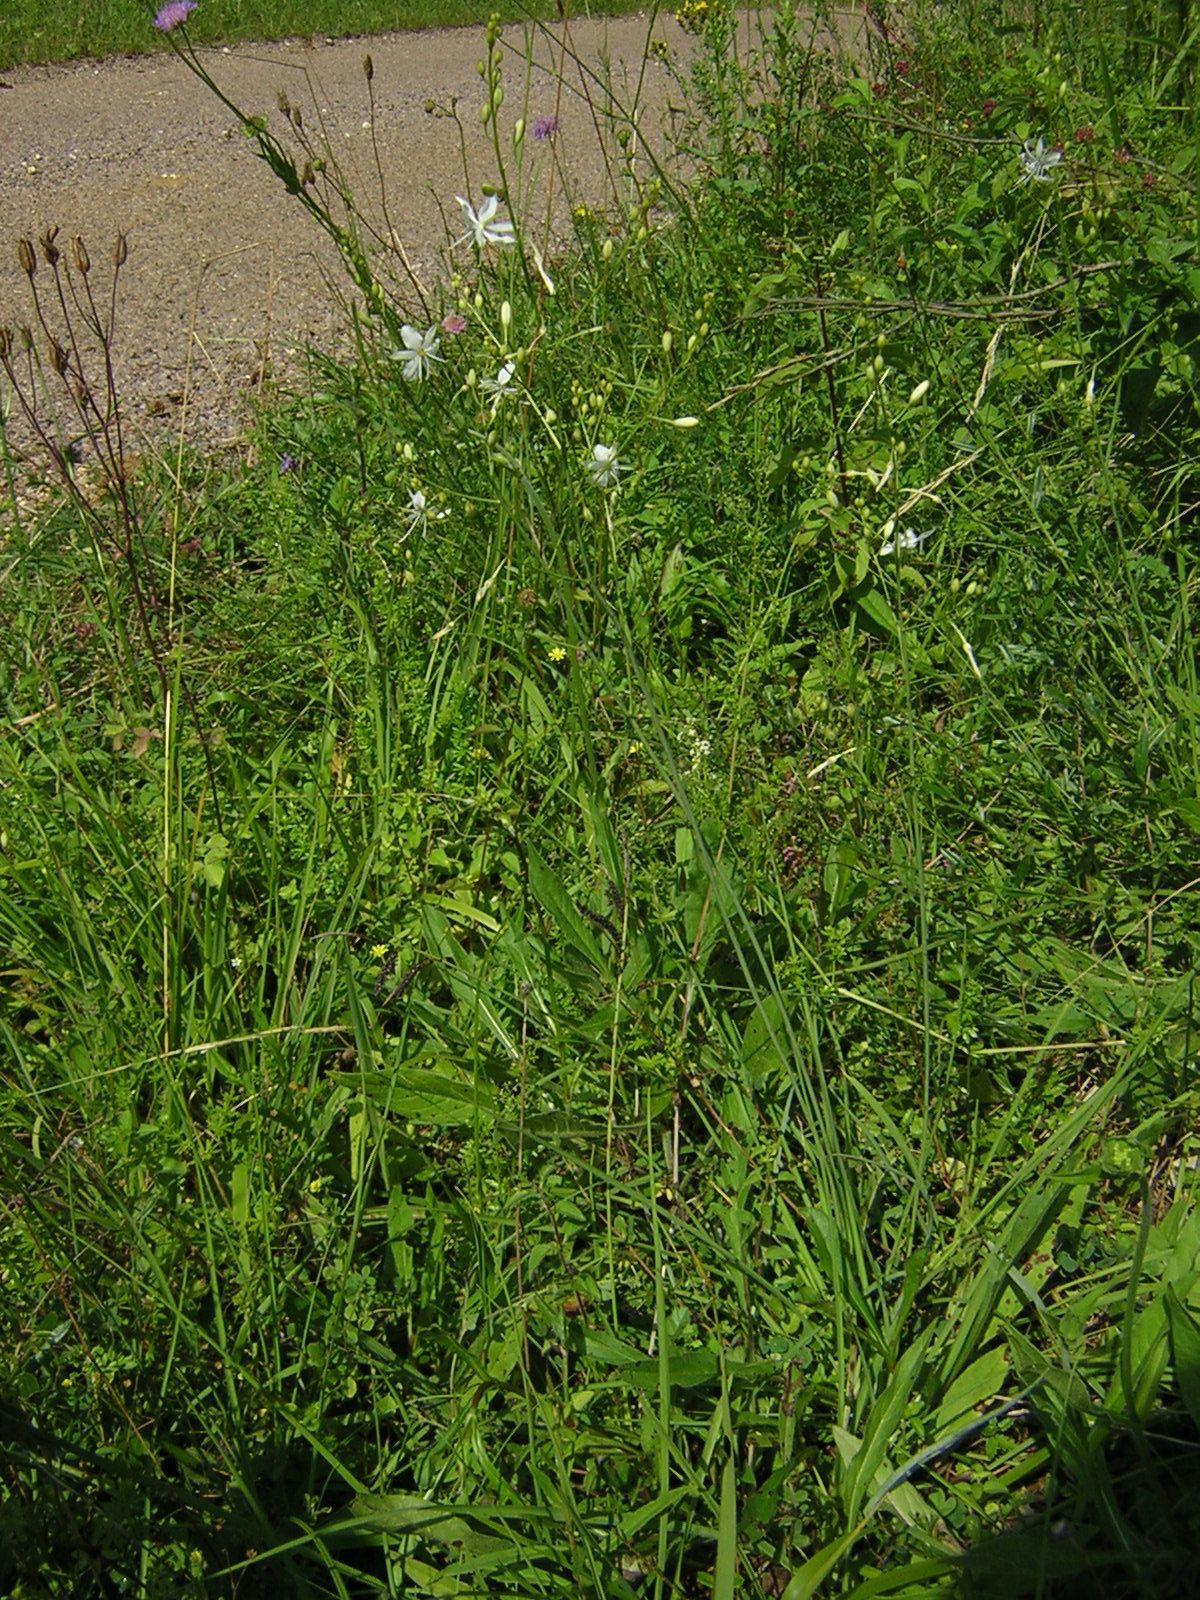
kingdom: Plantae
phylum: Tracheophyta
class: Liliopsida
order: Asparagales
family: Asparagaceae
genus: Anthericum
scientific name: Anthericum ramosum
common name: Branched st. bernard's-lily
